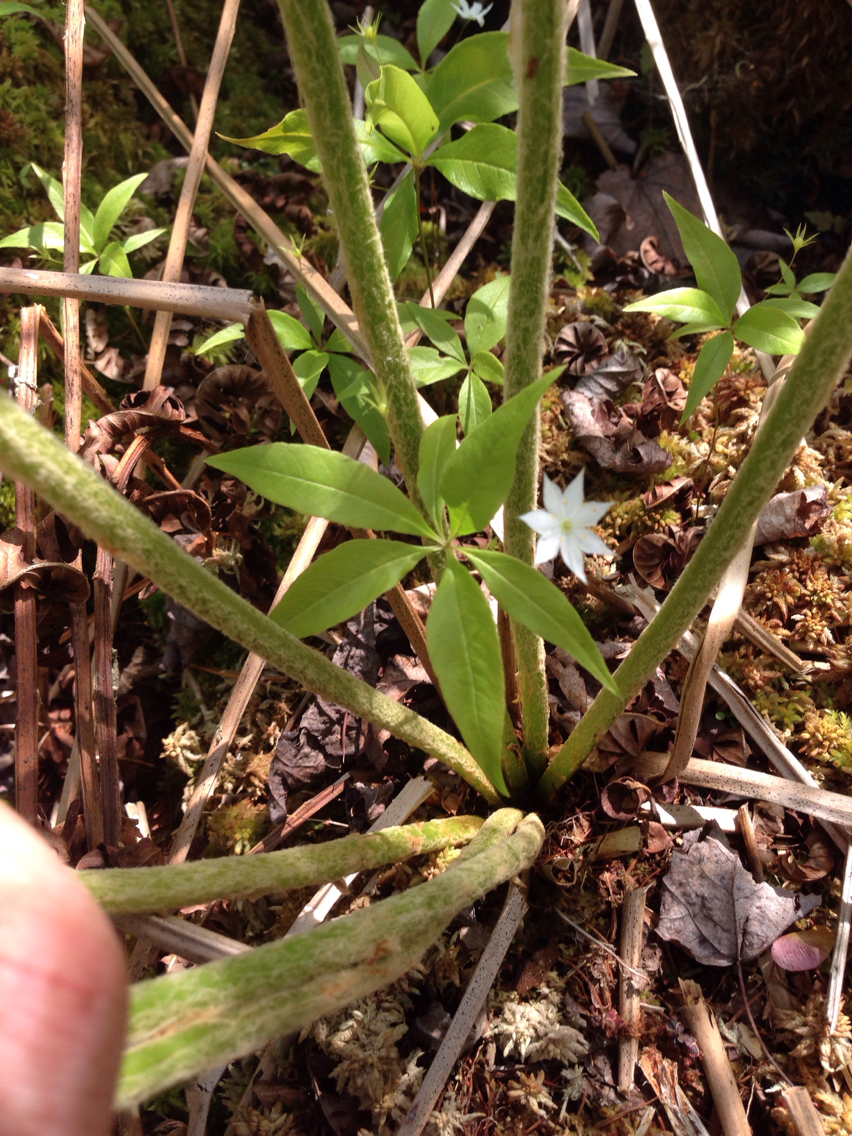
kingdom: Plantae
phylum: Tracheophyta
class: Magnoliopsida
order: Ericales
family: Primulaceae
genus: Lysimachia
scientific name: Lysimachia borealis
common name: American starflower
